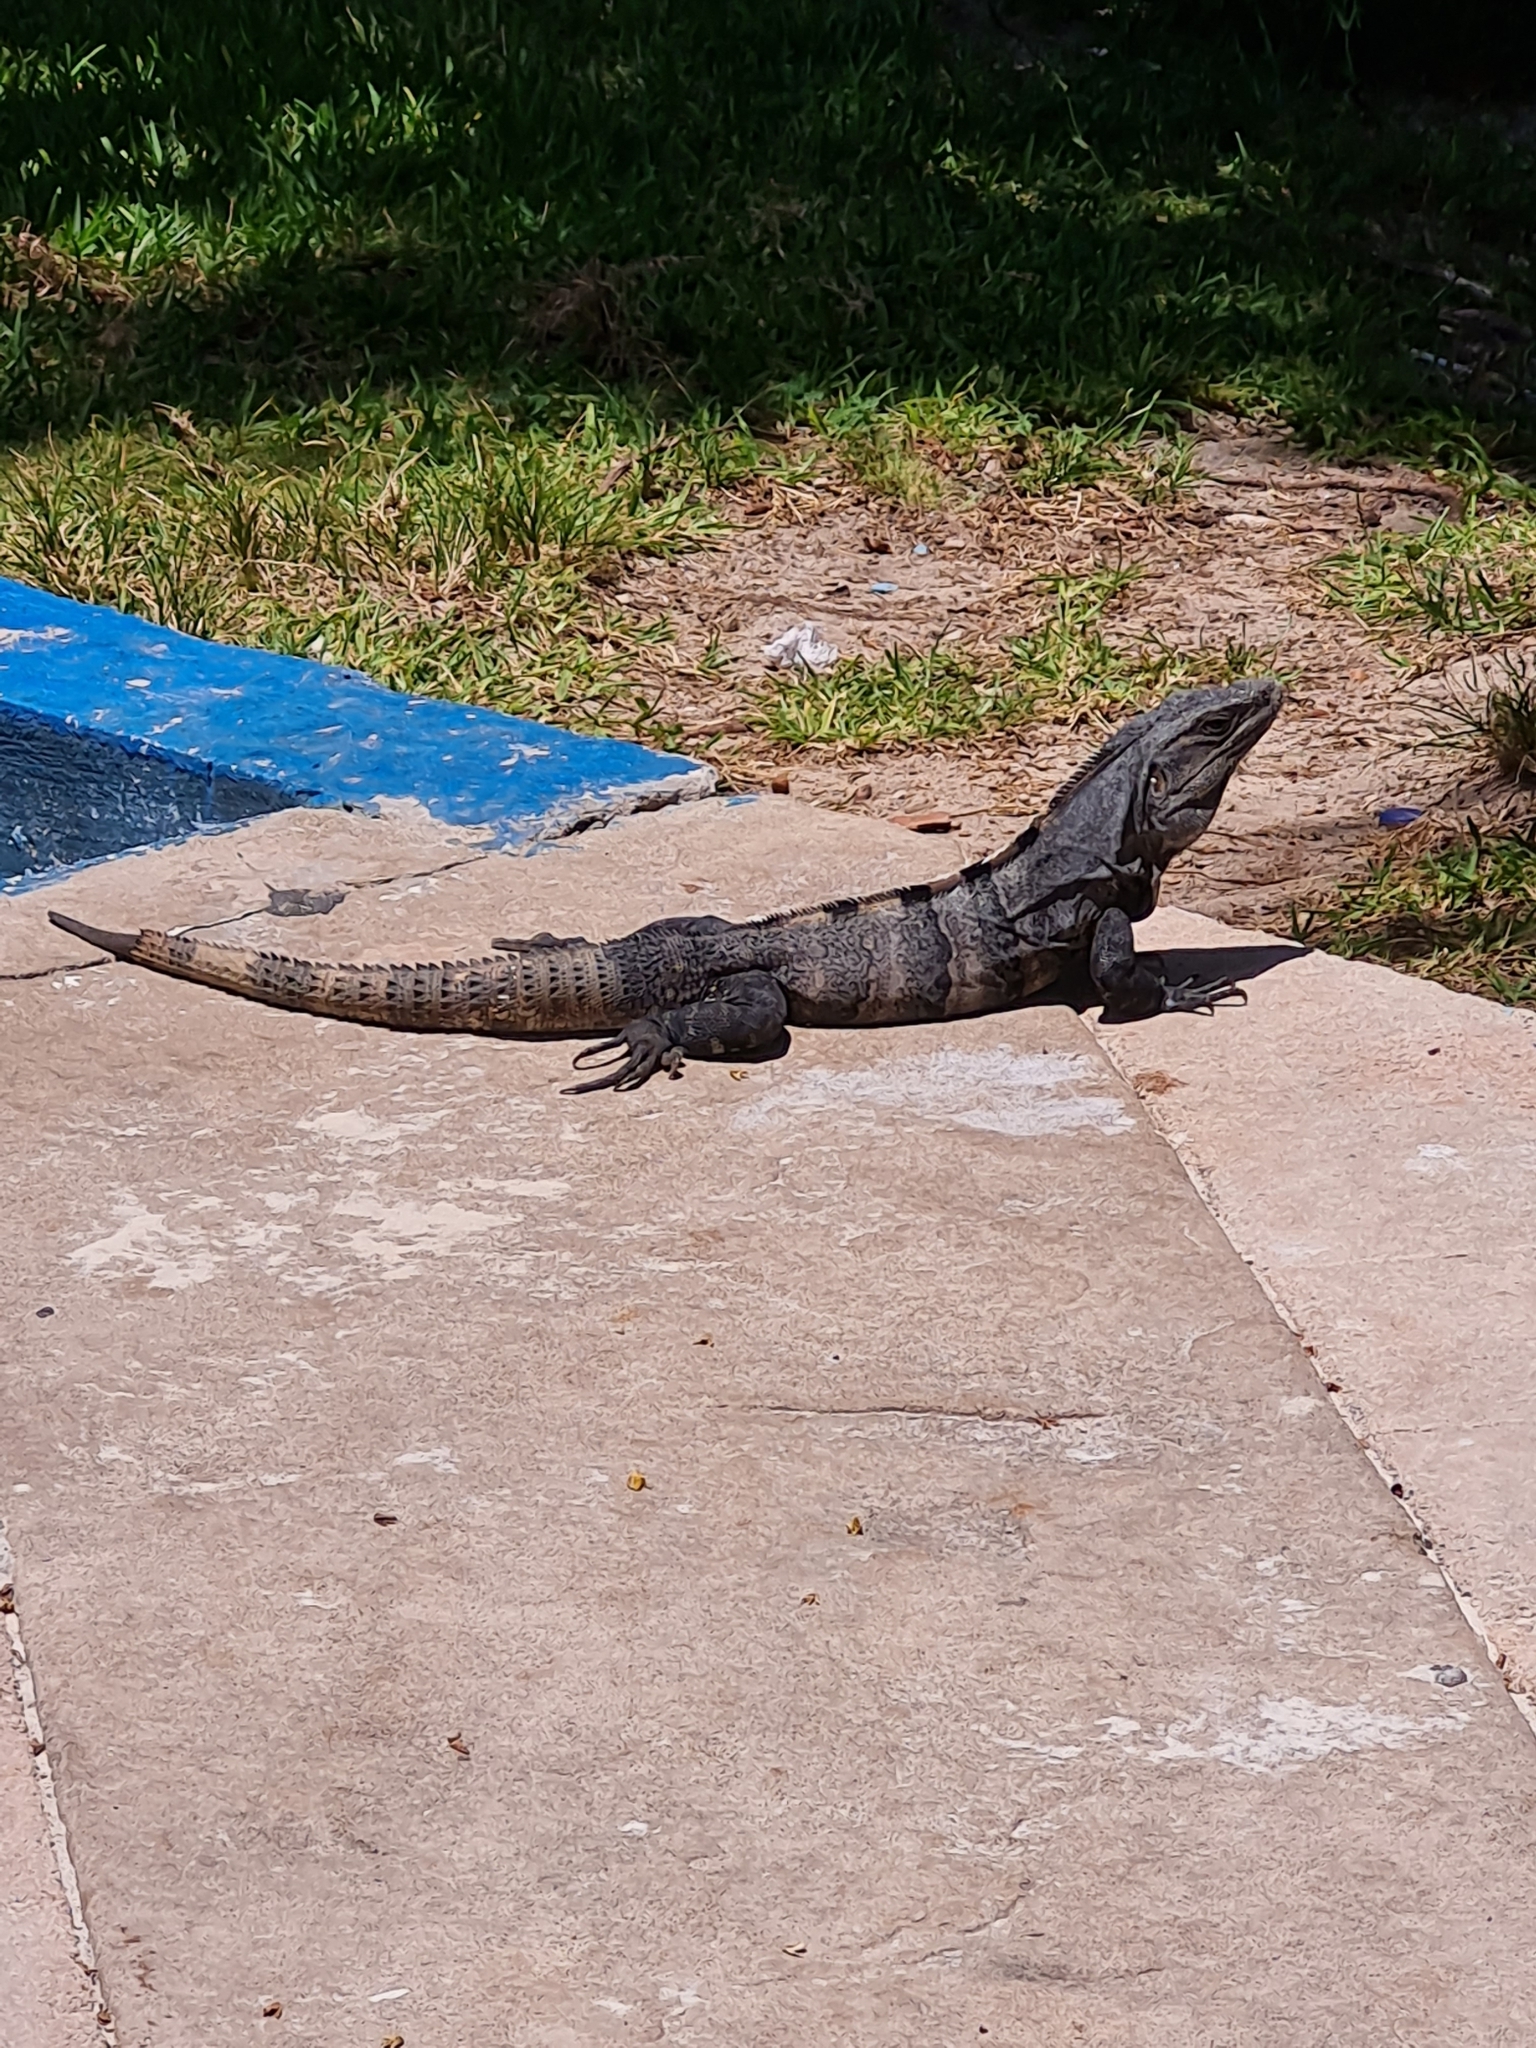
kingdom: Animalia
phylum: Chordata
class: Squamata
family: Iguanidae
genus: Ctenosaura
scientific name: Ctenosaura similis
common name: Black spiny-tailed iguana
